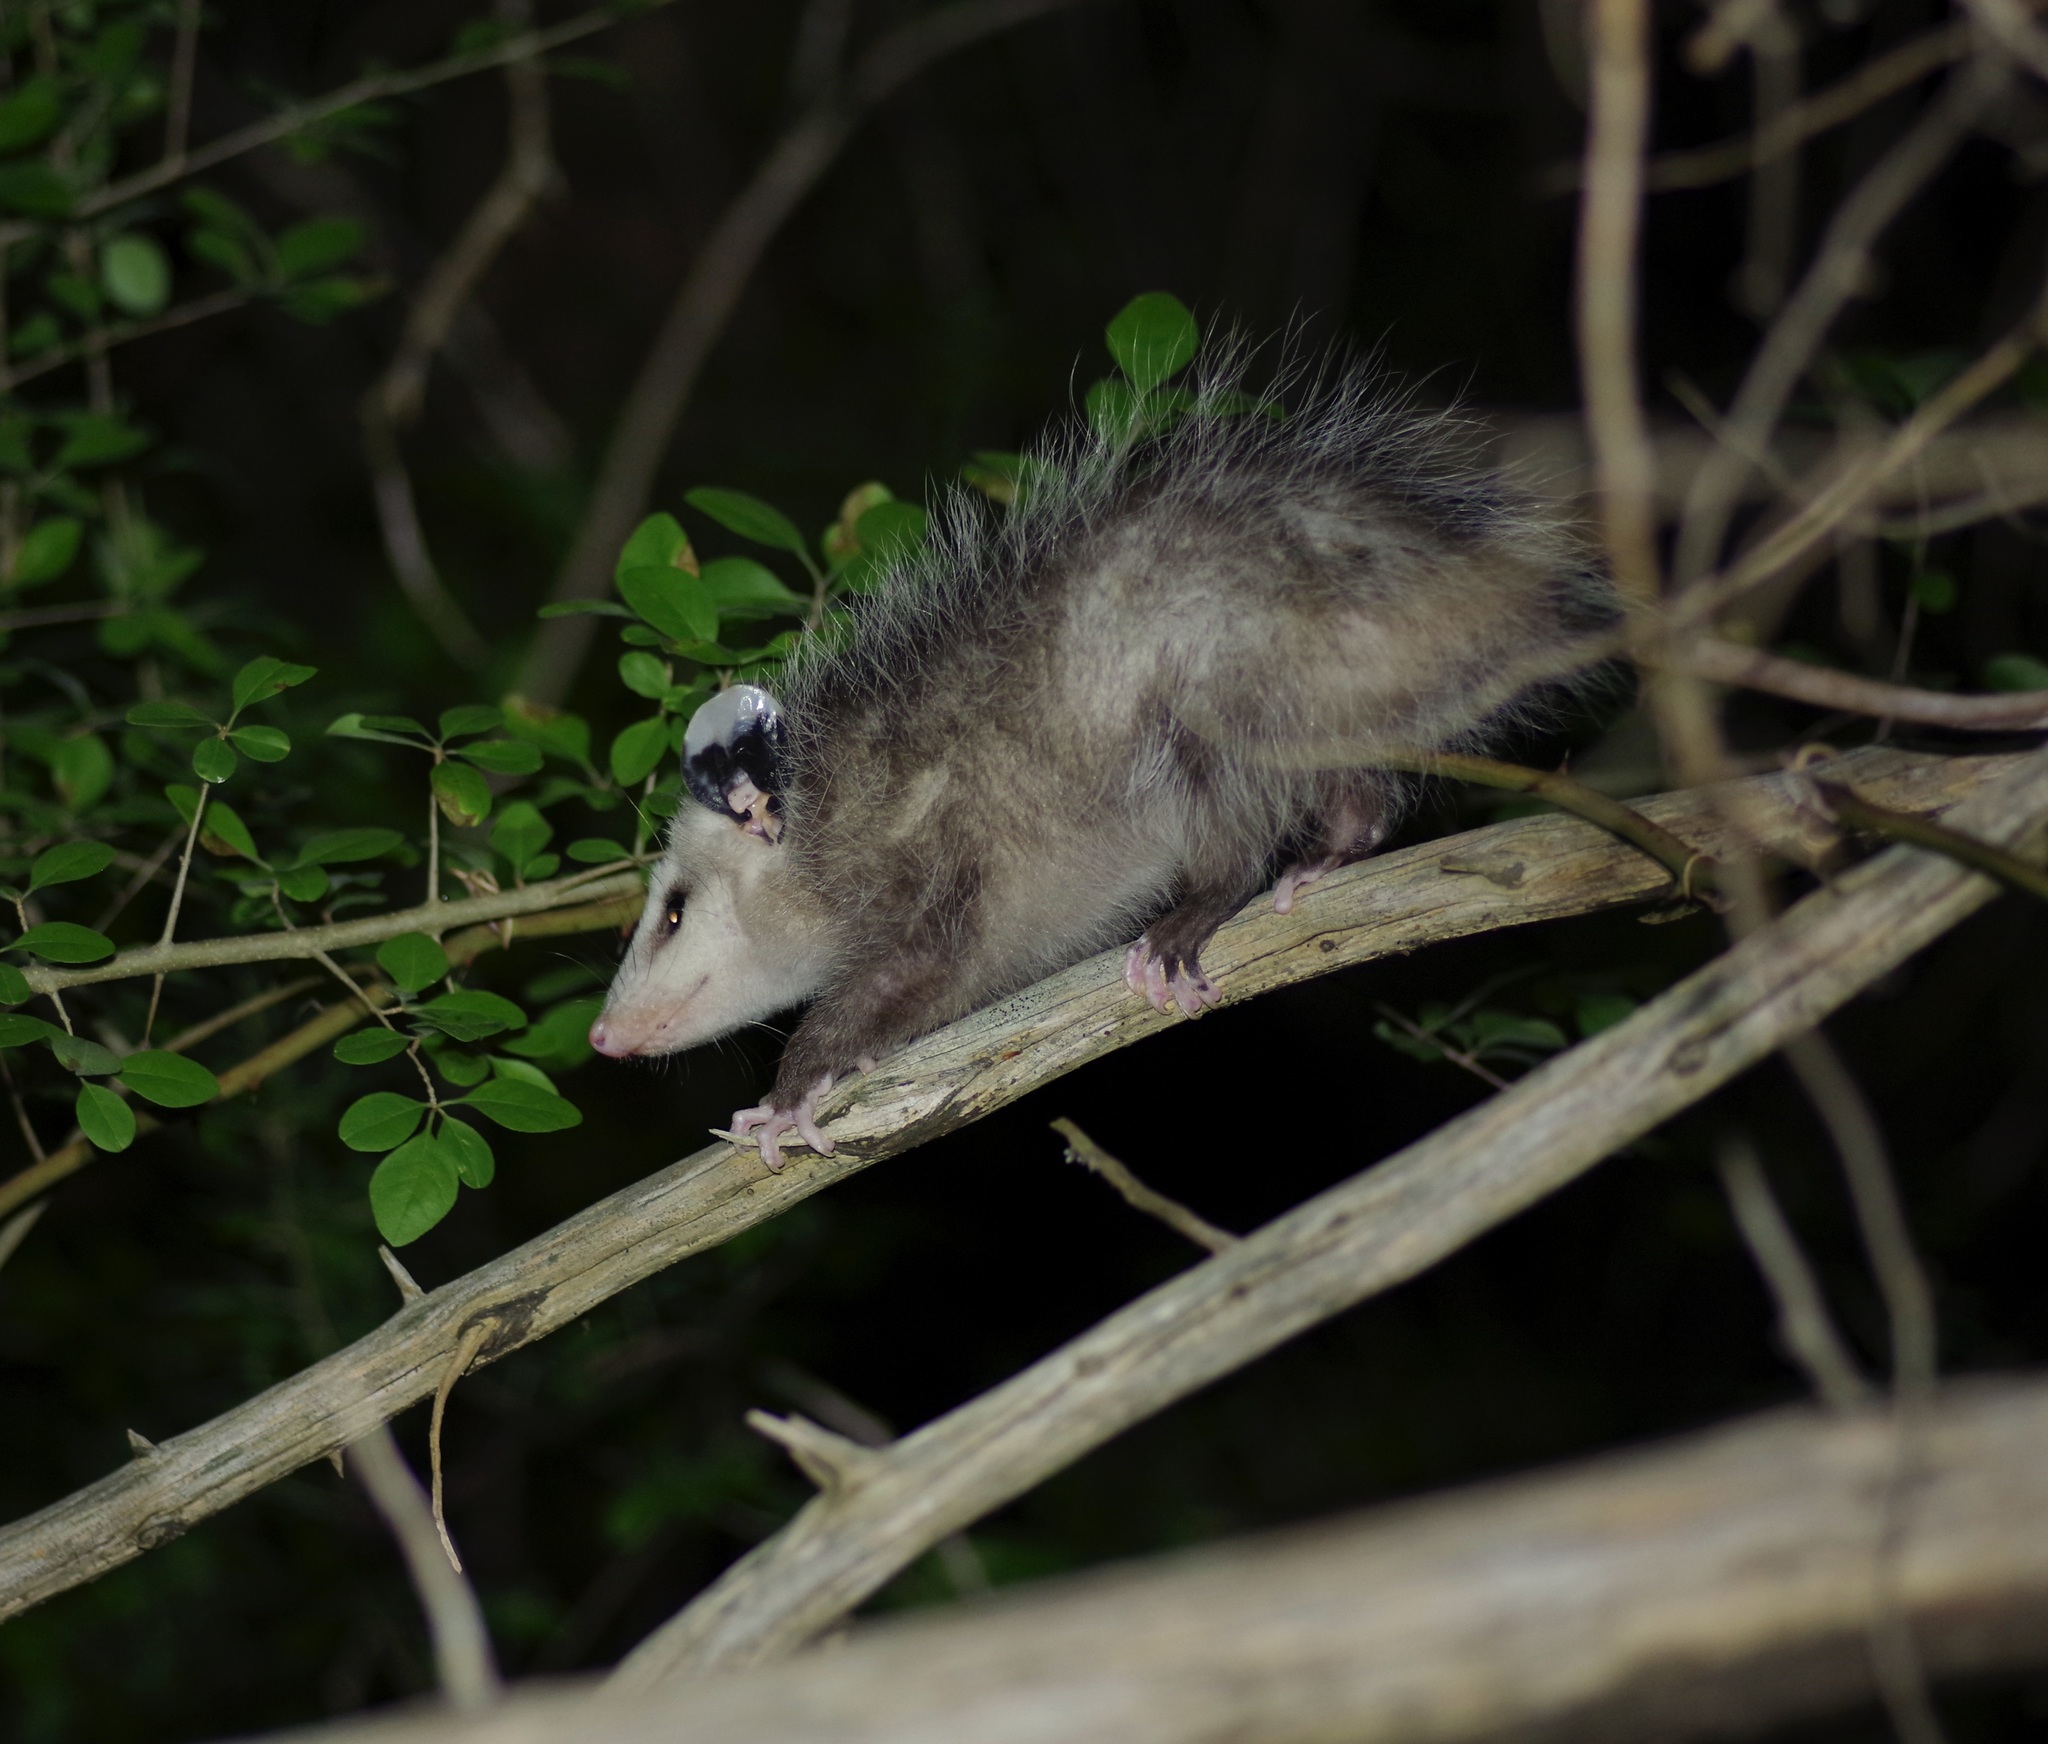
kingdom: Animalia
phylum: Chordata
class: Mammalia
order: Didelphimorphia
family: Didelphidae
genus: Didelphis
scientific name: Didelphis virginiana
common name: Virginia opossum
